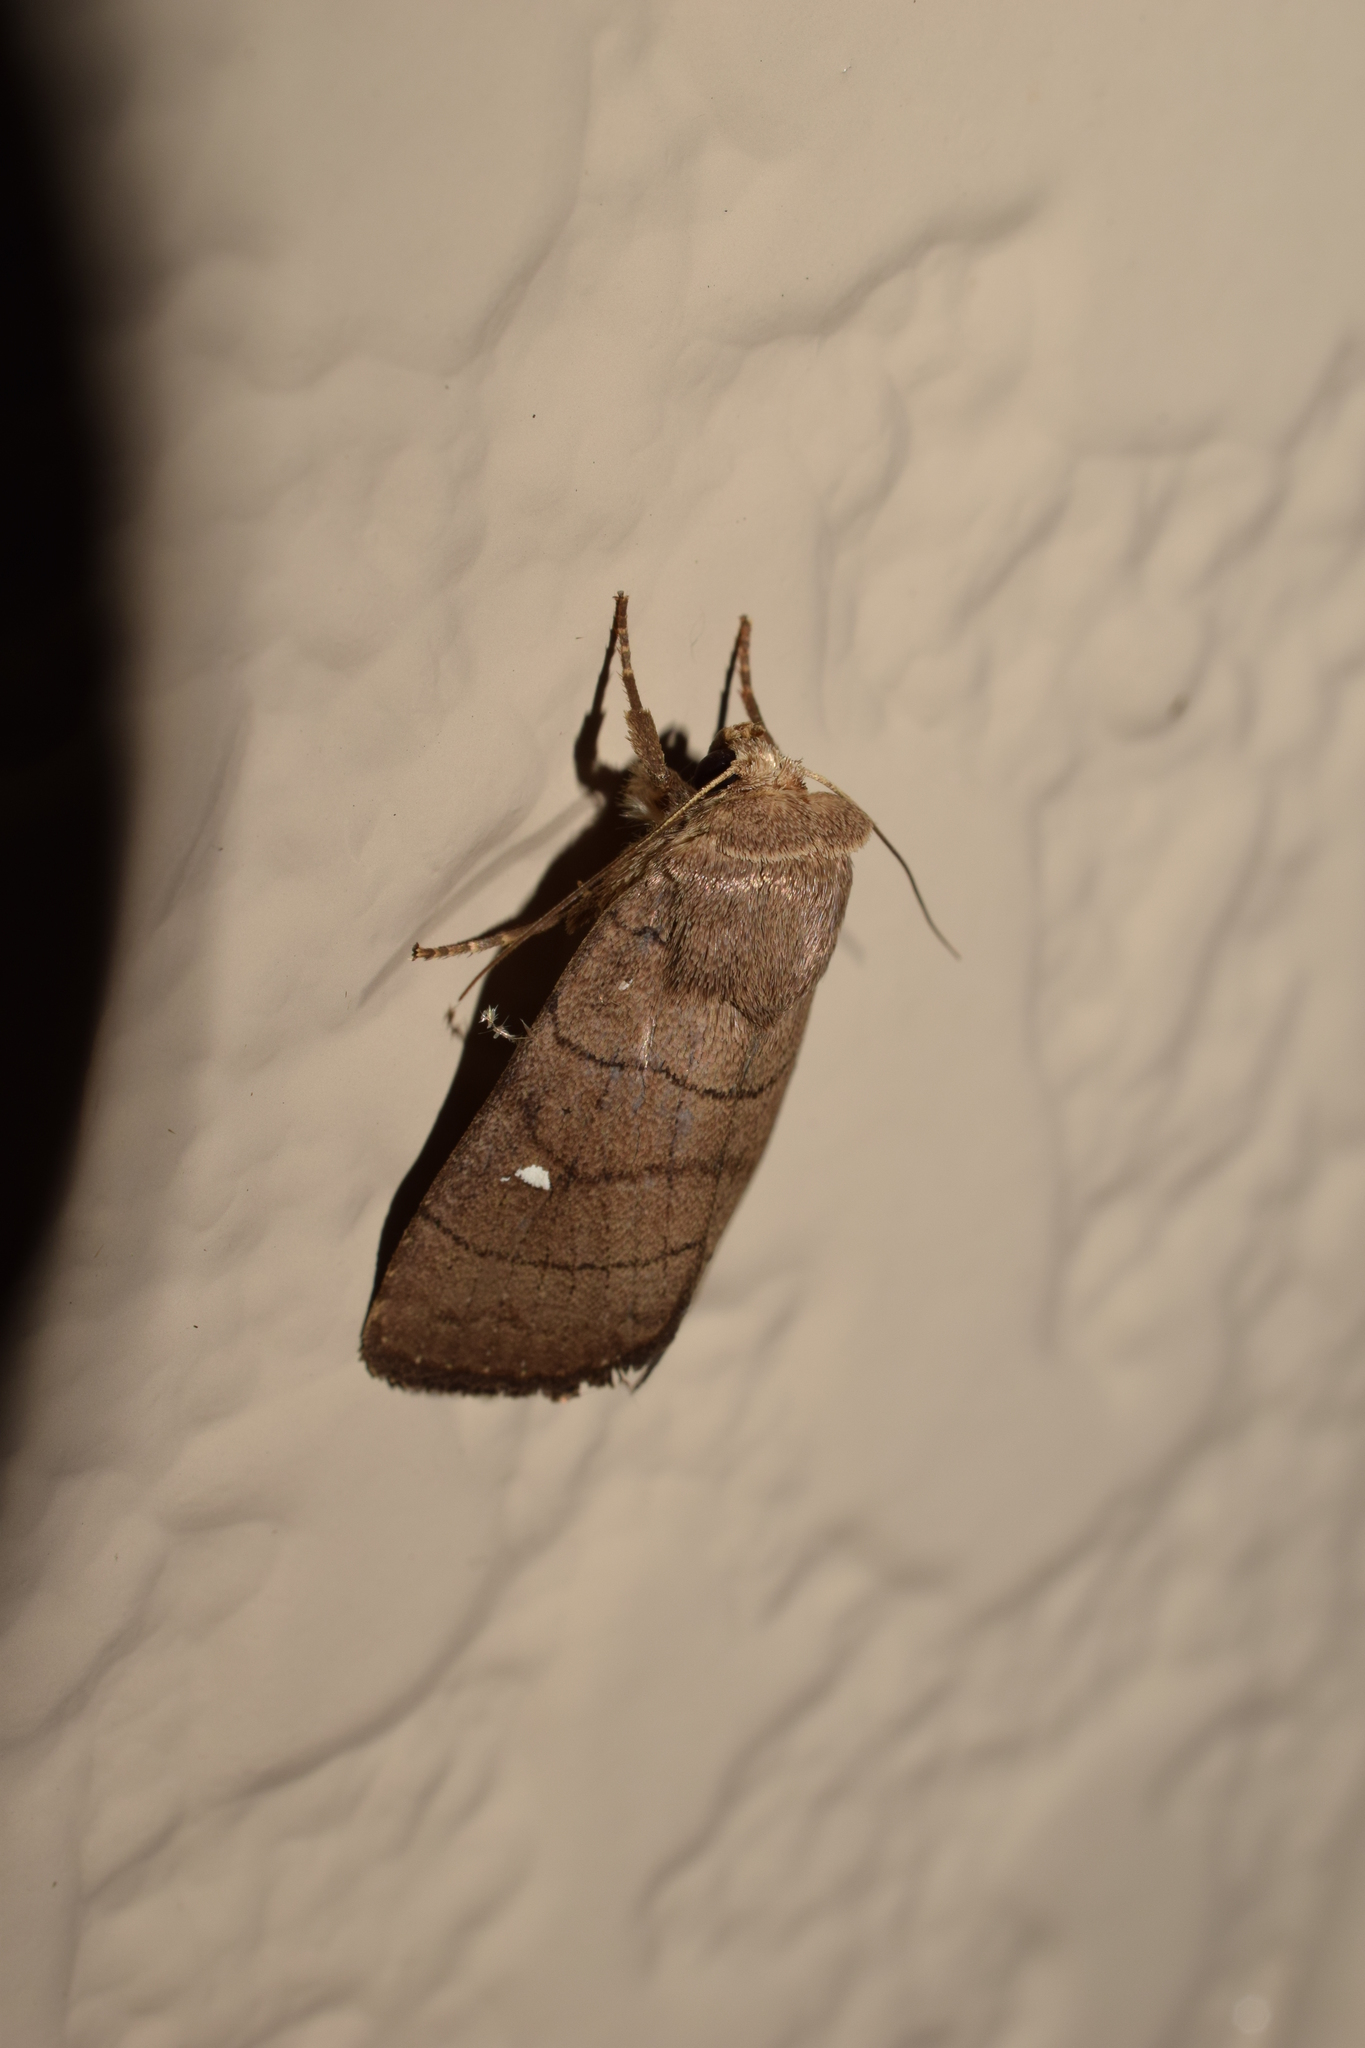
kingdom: Animalia
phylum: Arthropoda
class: Insecta
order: Lepidoptera
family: Noctuidae
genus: Proxenus
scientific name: Proxenus
